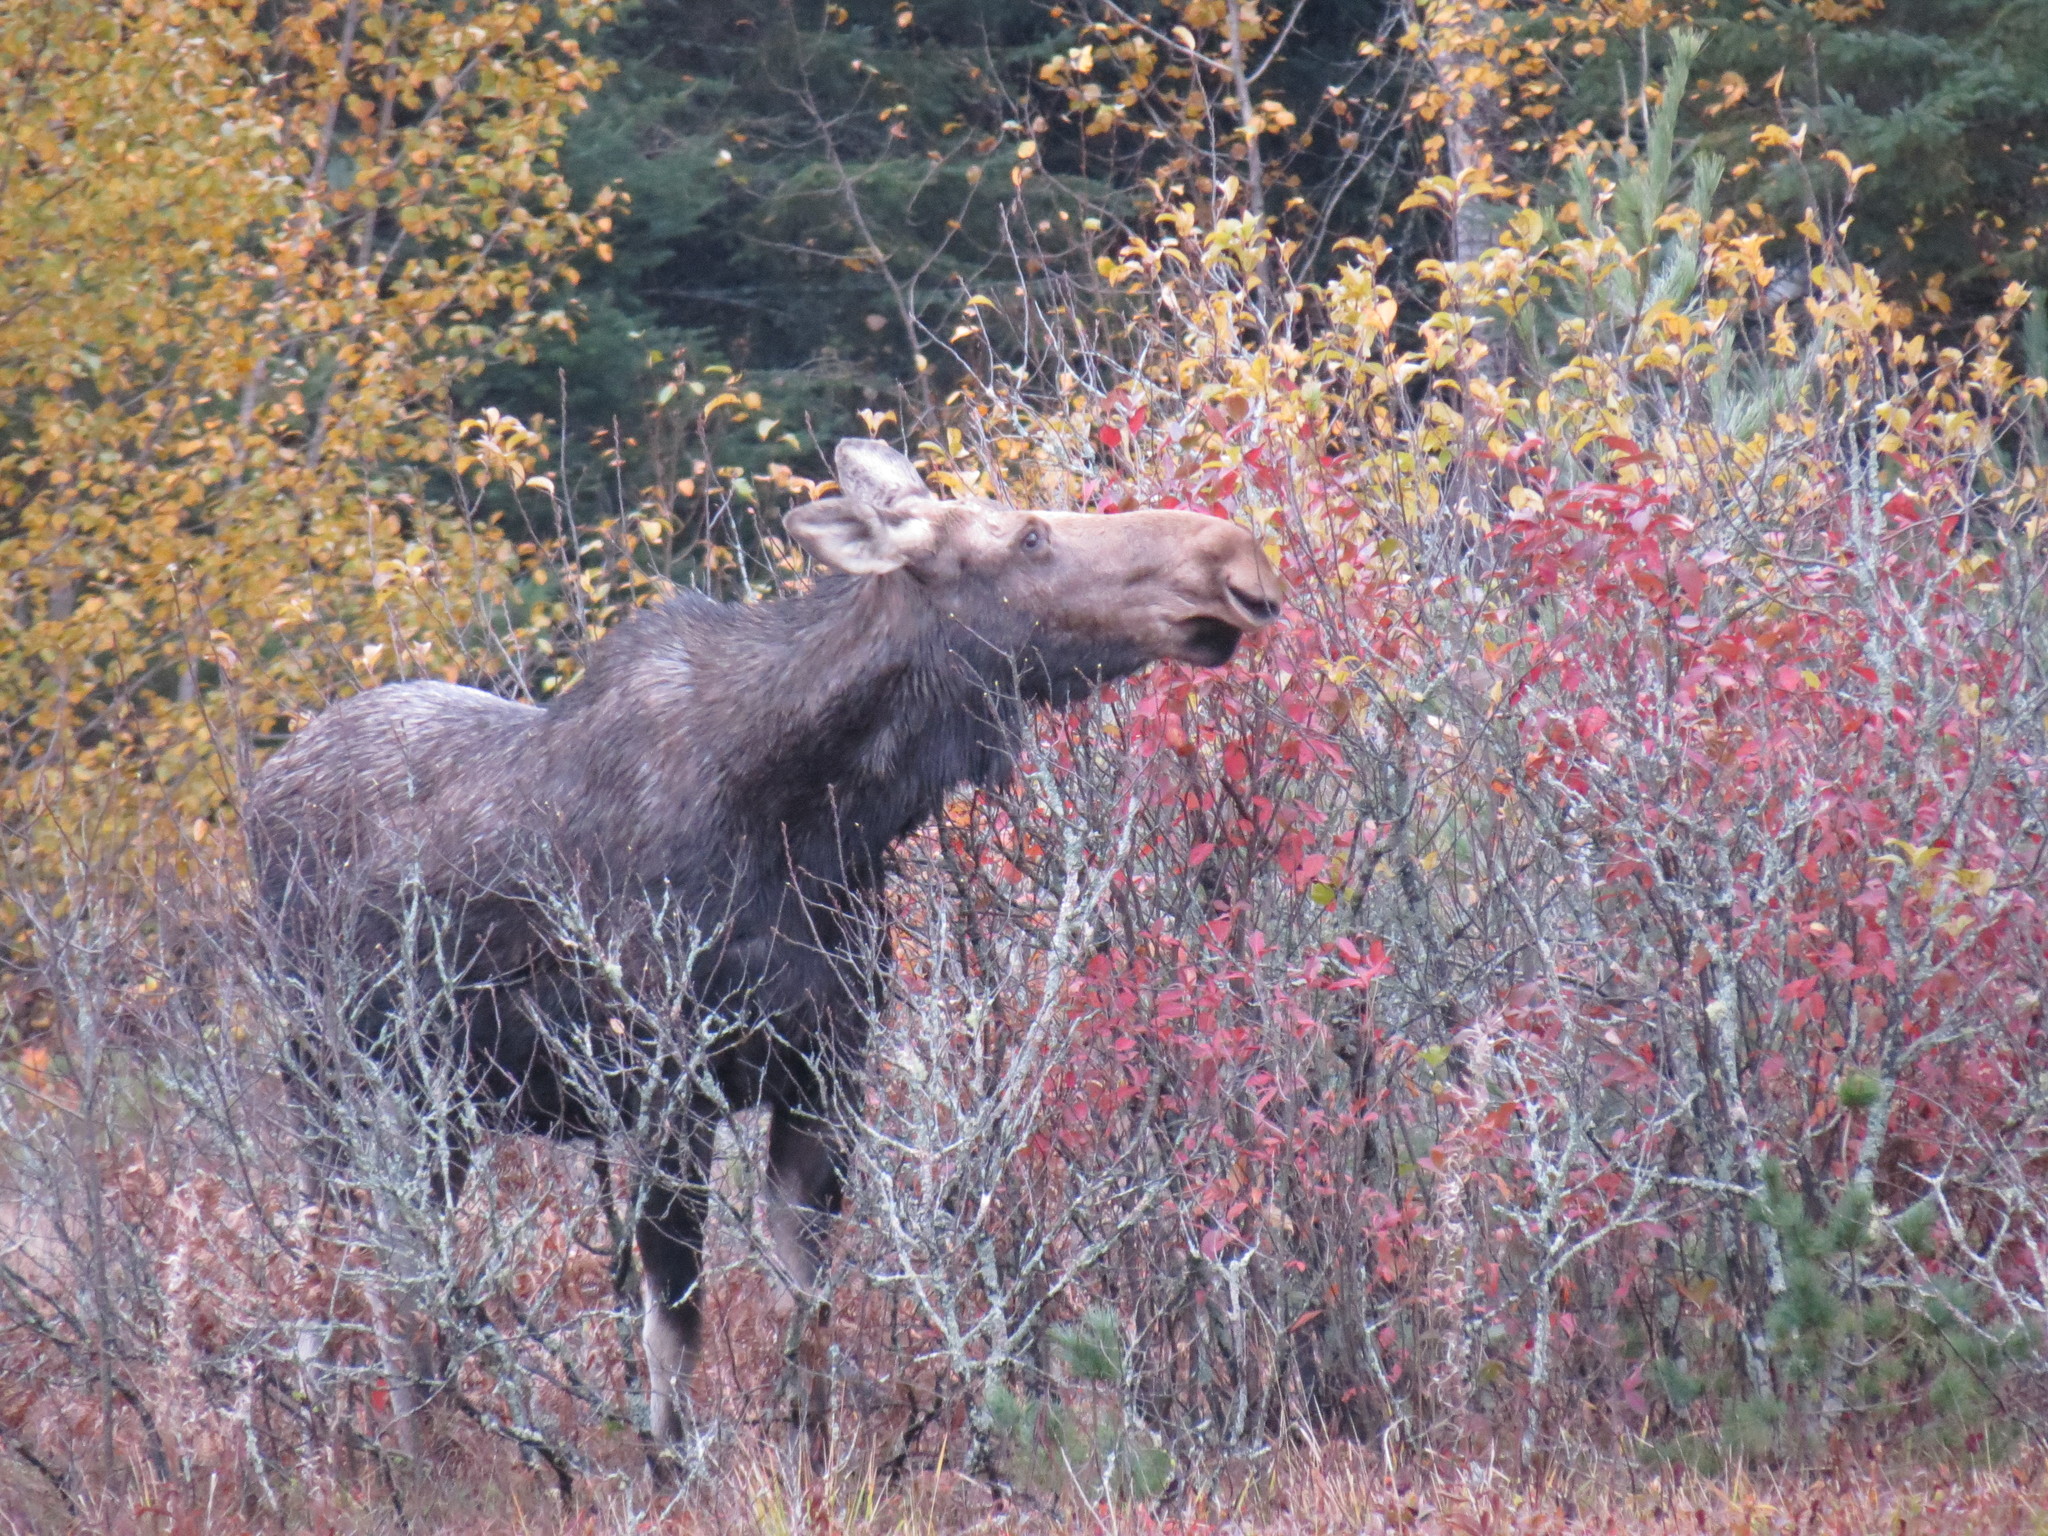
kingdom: Animalia
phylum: Chordata
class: Mammalia
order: Artiodactyla
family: Cervidae
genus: Alces
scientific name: Alces alces
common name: Moose
